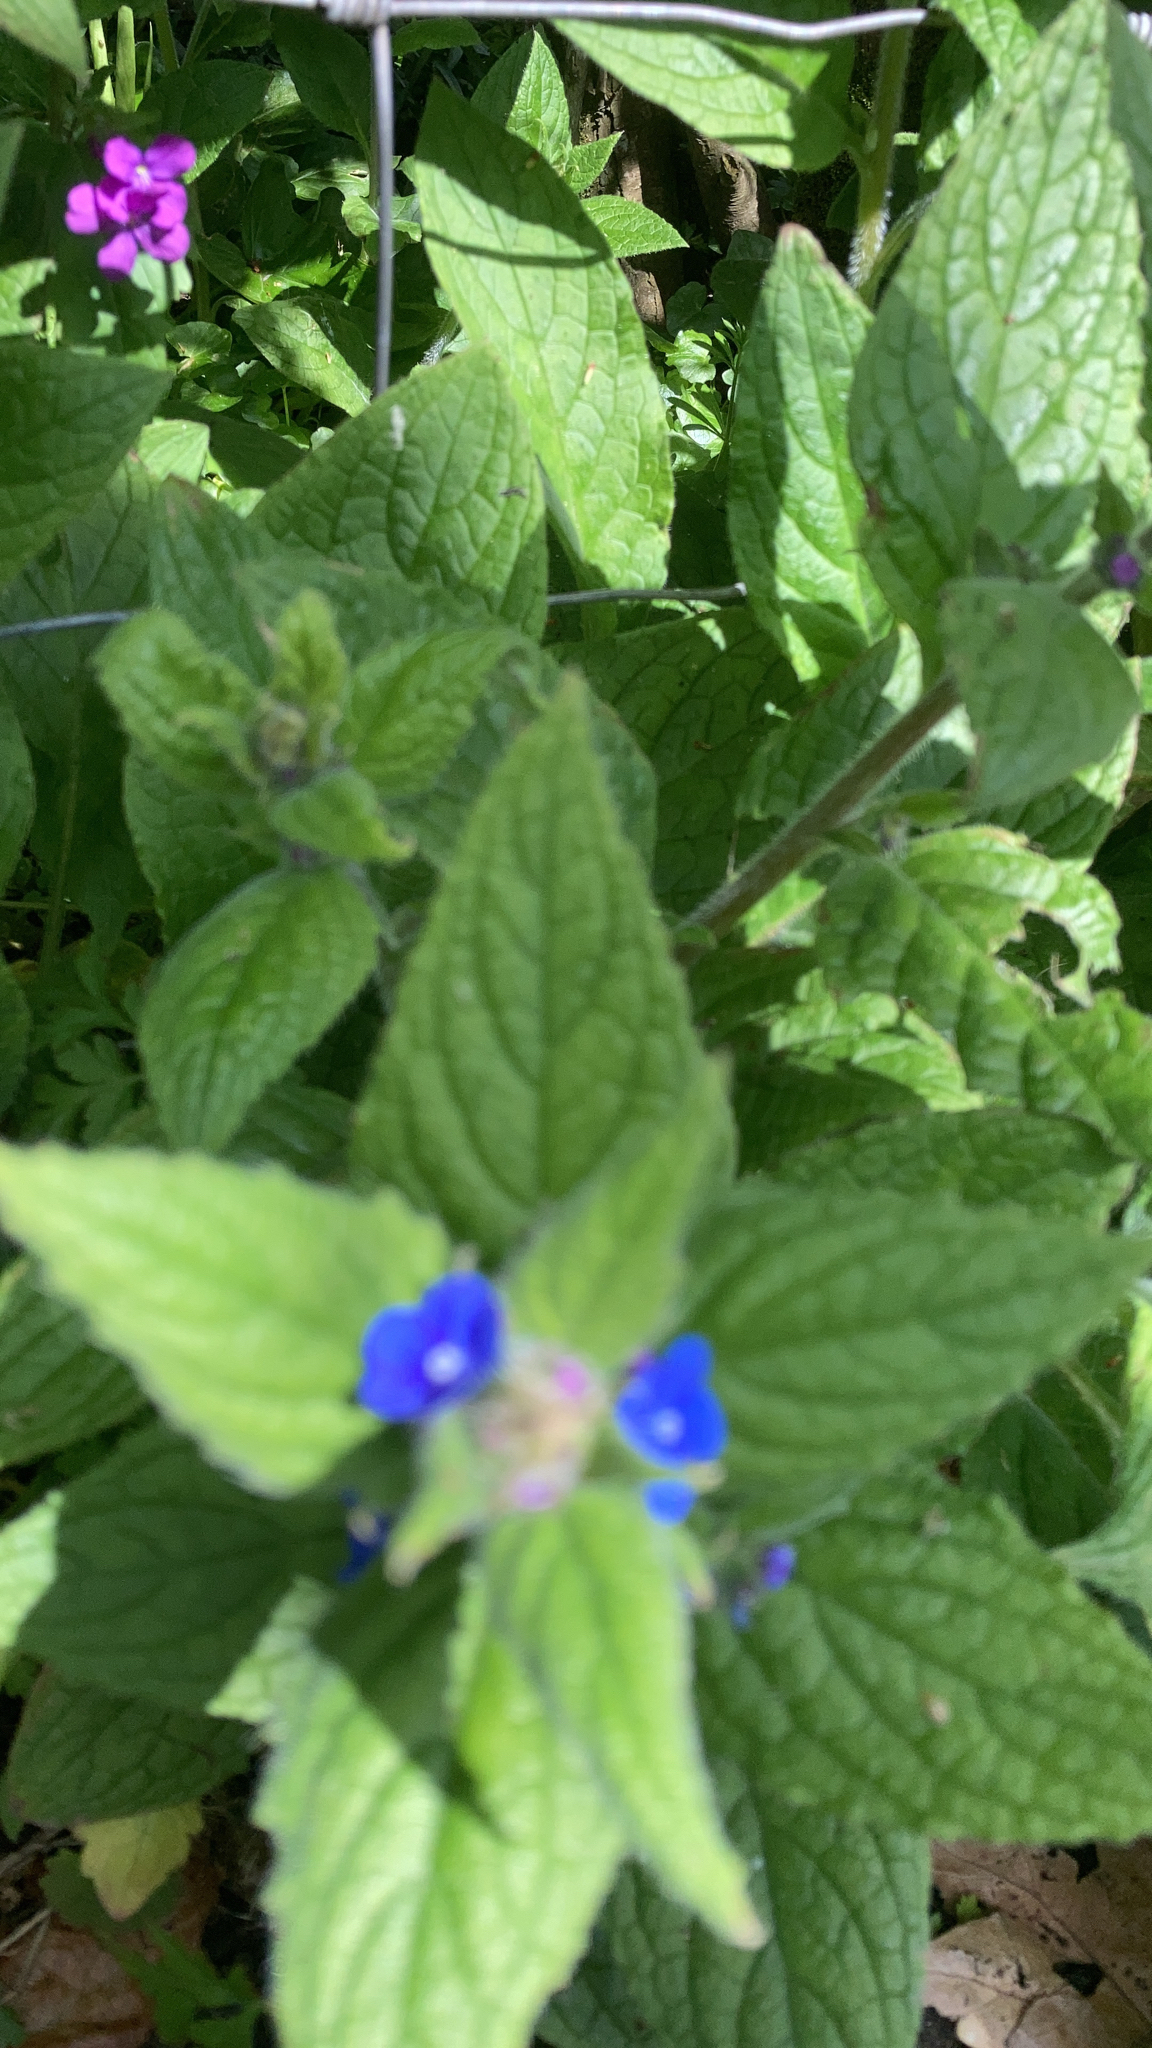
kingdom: Plantae
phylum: Tracheophyta
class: Magnoliopsida
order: Boraginales
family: Boraginaceae
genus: Pentaglottis
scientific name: Pentaglottis sempervirens
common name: Green alkanet
